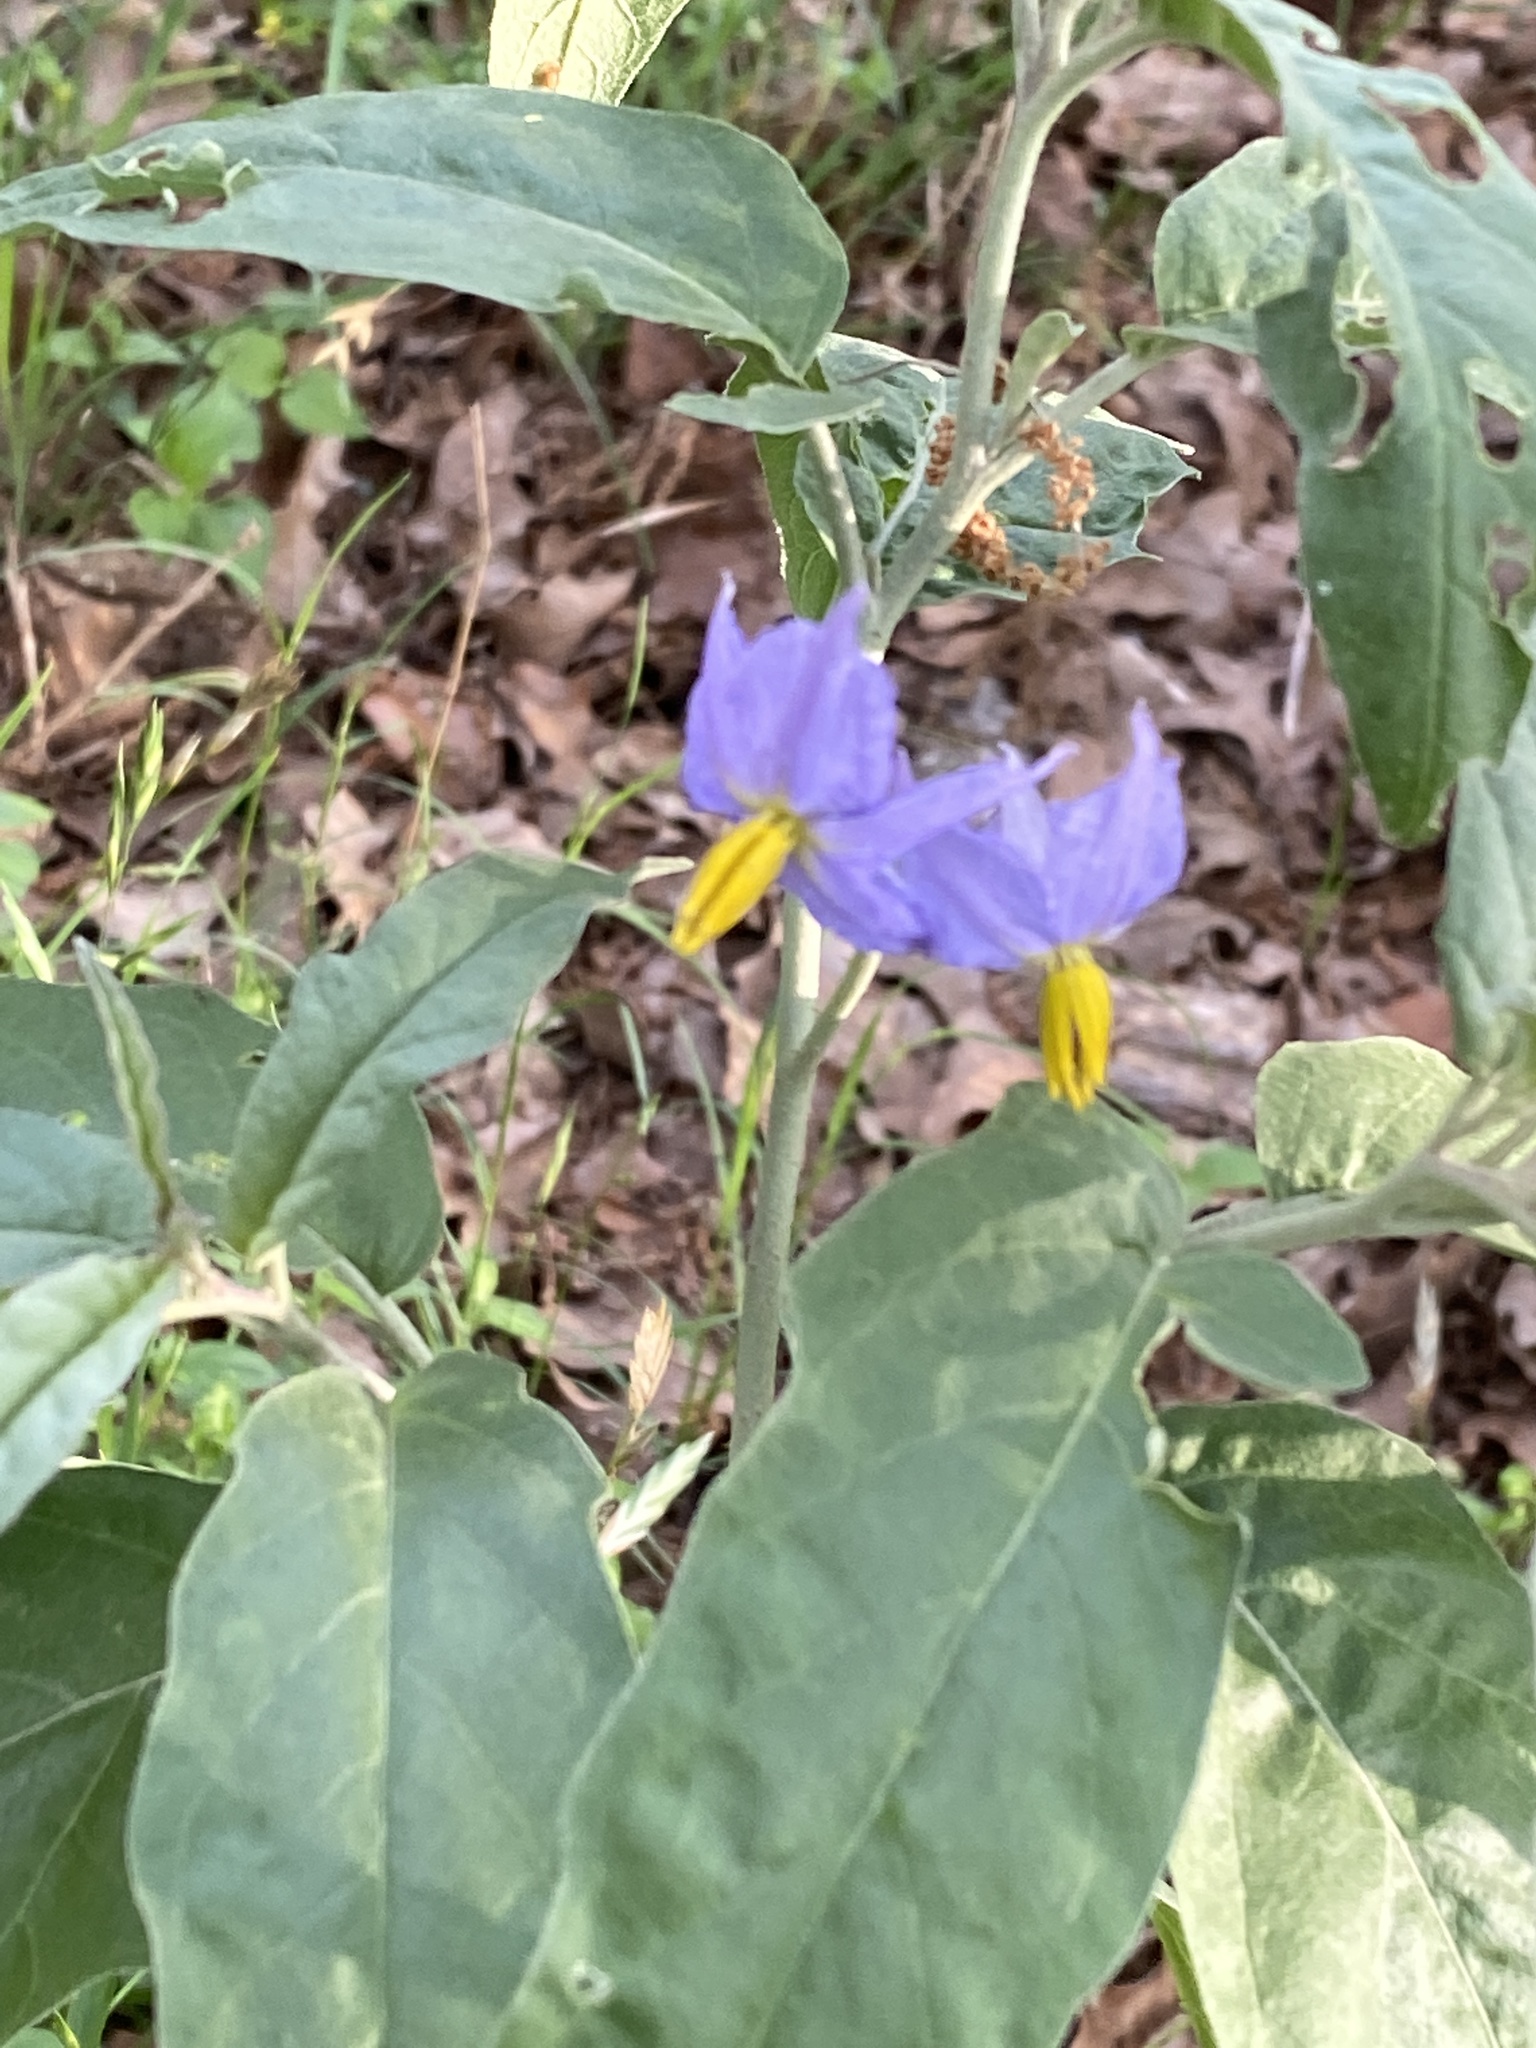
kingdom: Plantae
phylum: Tracheophyta
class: Magnoliopsida
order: Solanales
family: Solanaceae
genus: Solanum
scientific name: Solanum elaeagnifolium
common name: Silverleaf nightshade
